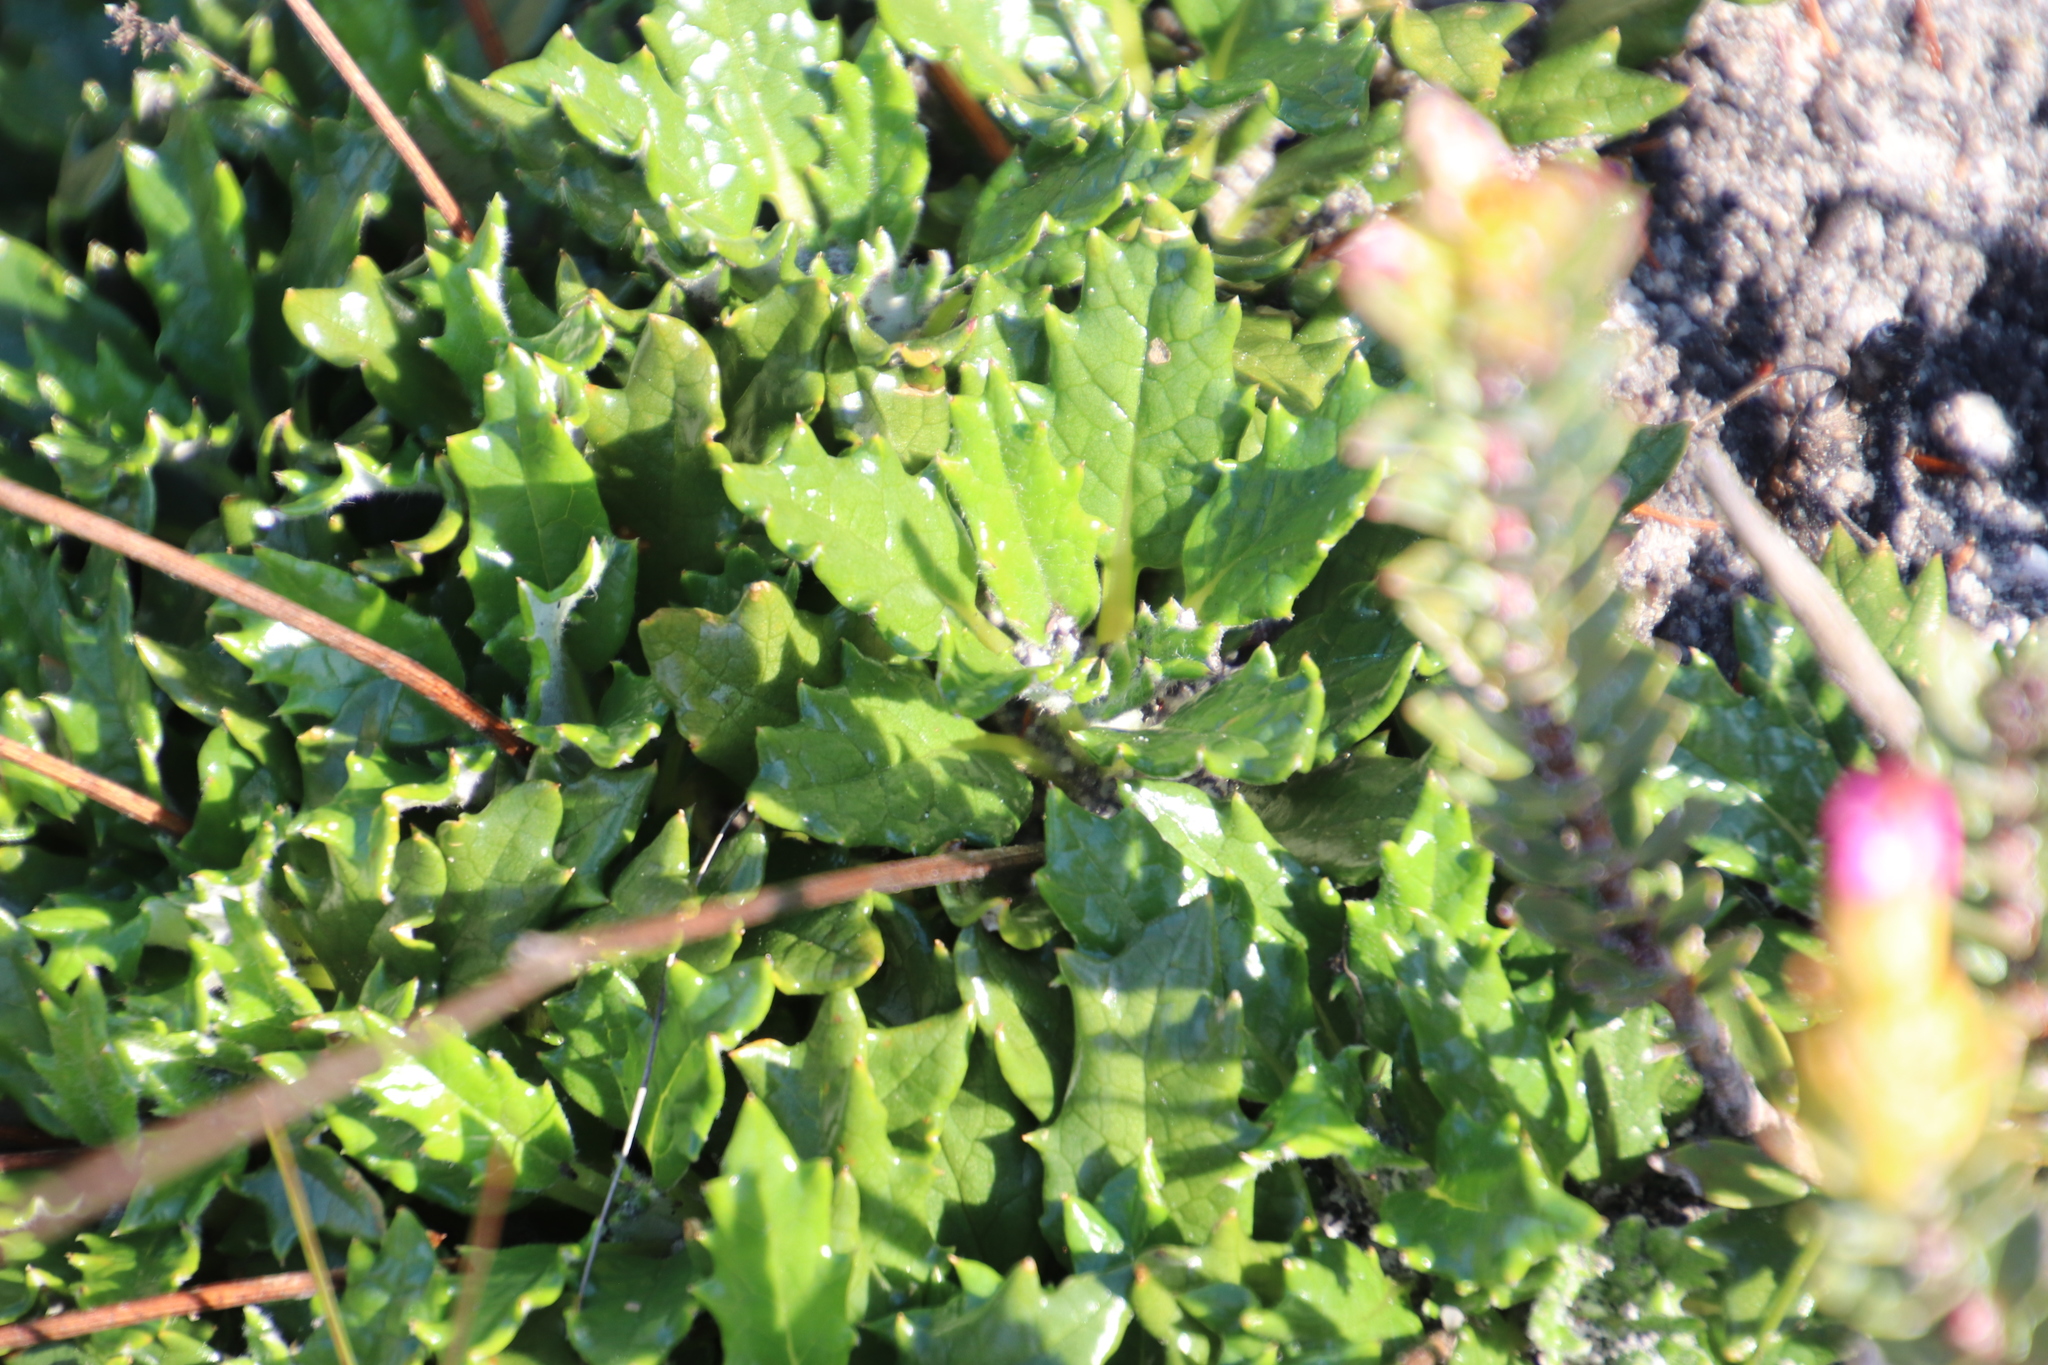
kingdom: Plantae
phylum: Tracheophyta
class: Magnoliopsida
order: Apiales
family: Apiaceae
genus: Hermas
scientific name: Hermas quinquedentata
